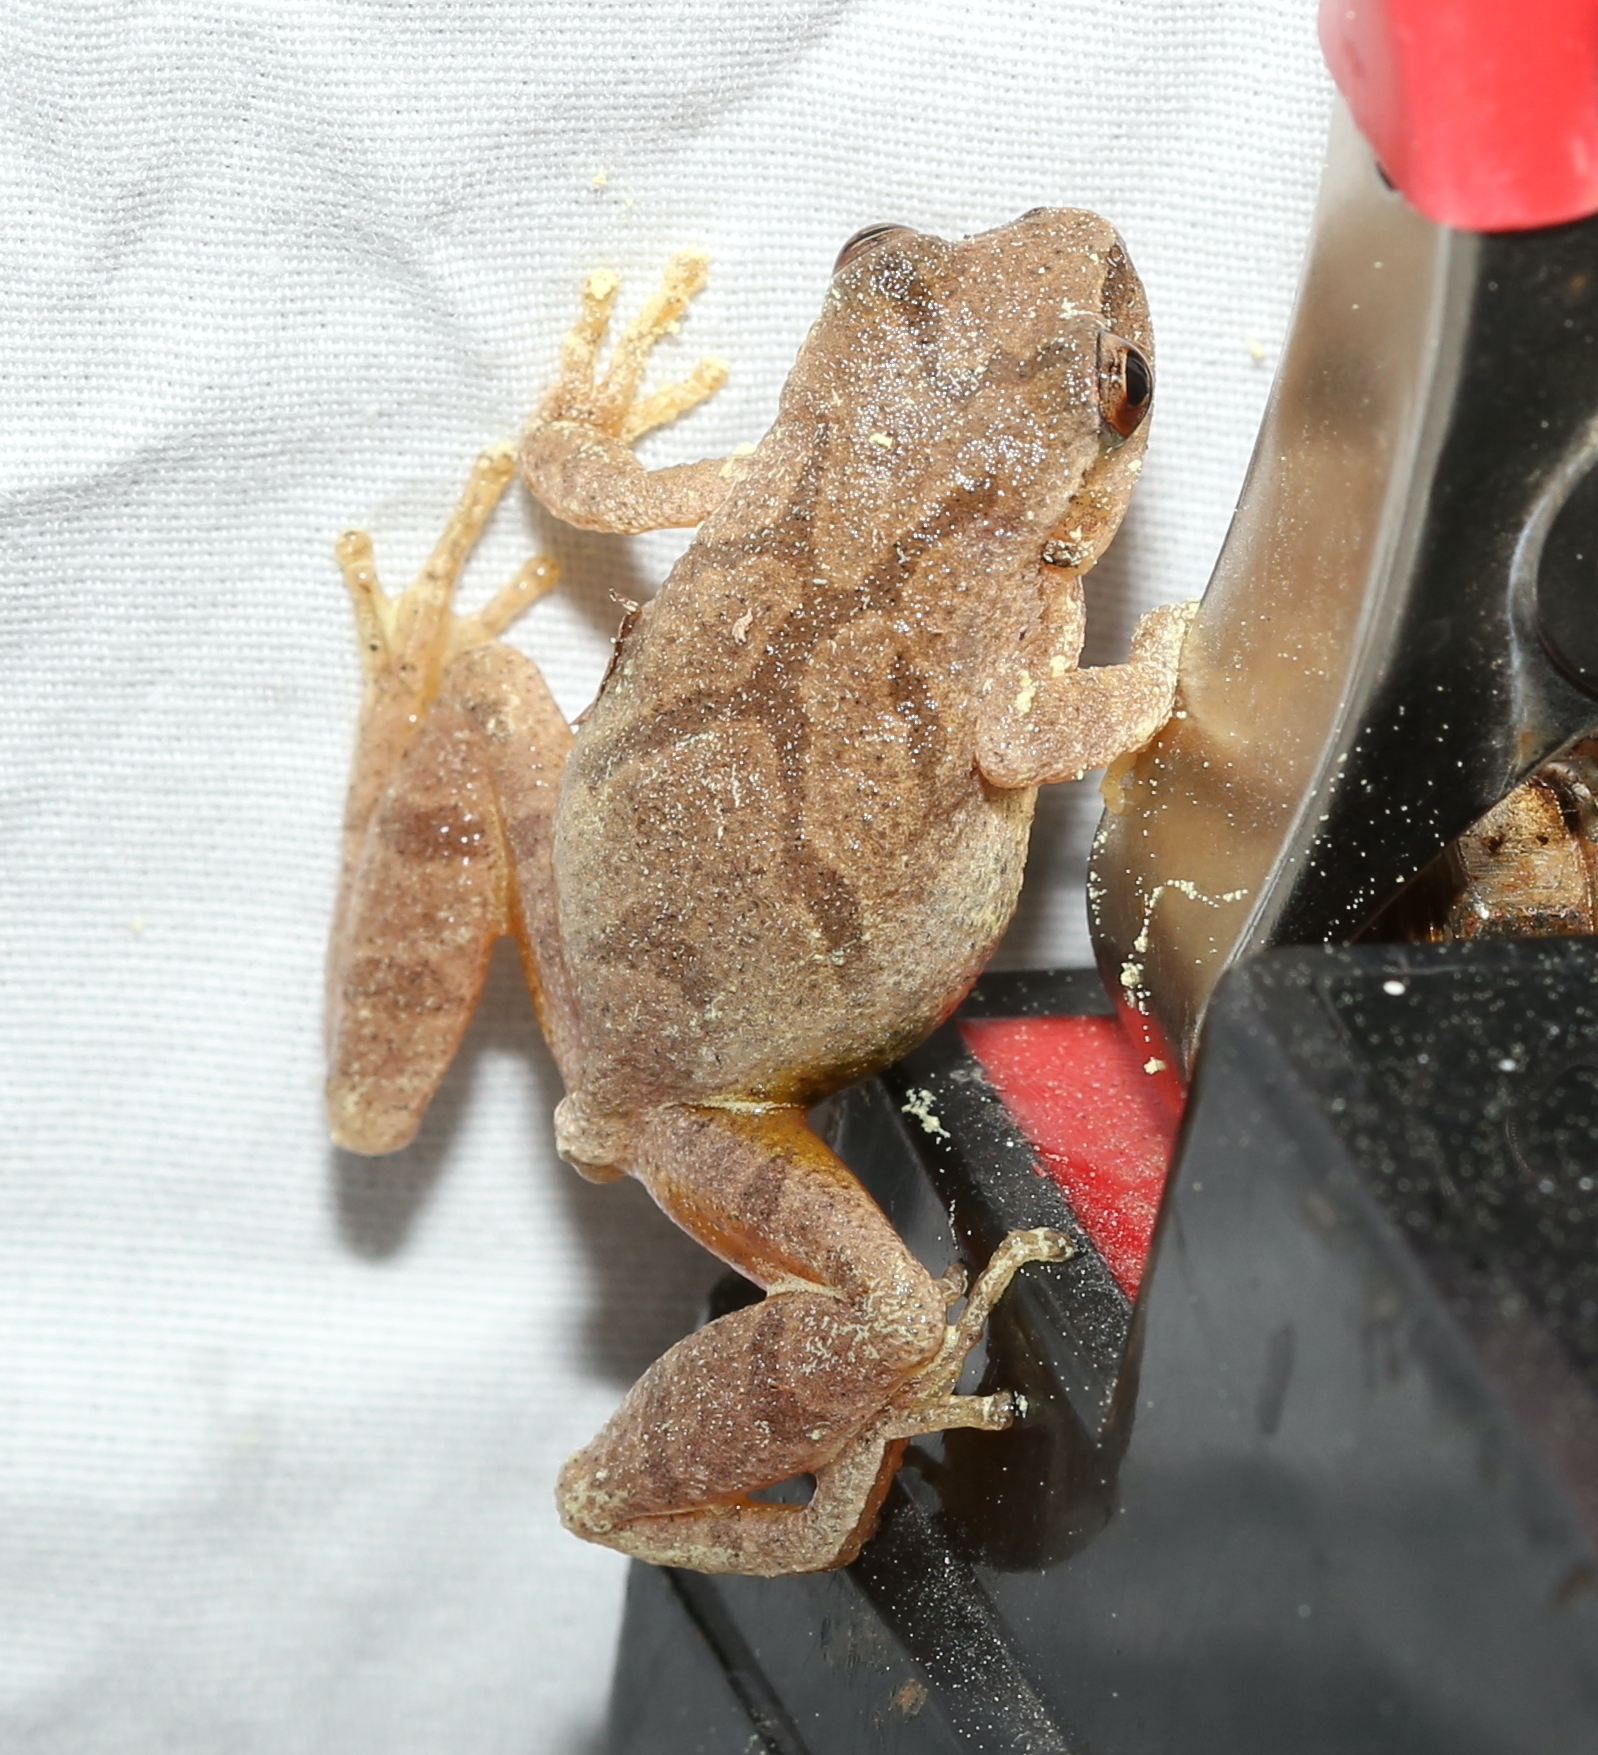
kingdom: Animalia
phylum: Chordata
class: Amphibia
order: Anura
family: Hylidae
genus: Pseudacris
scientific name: Pseudacris crucifer
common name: Spring peeper
